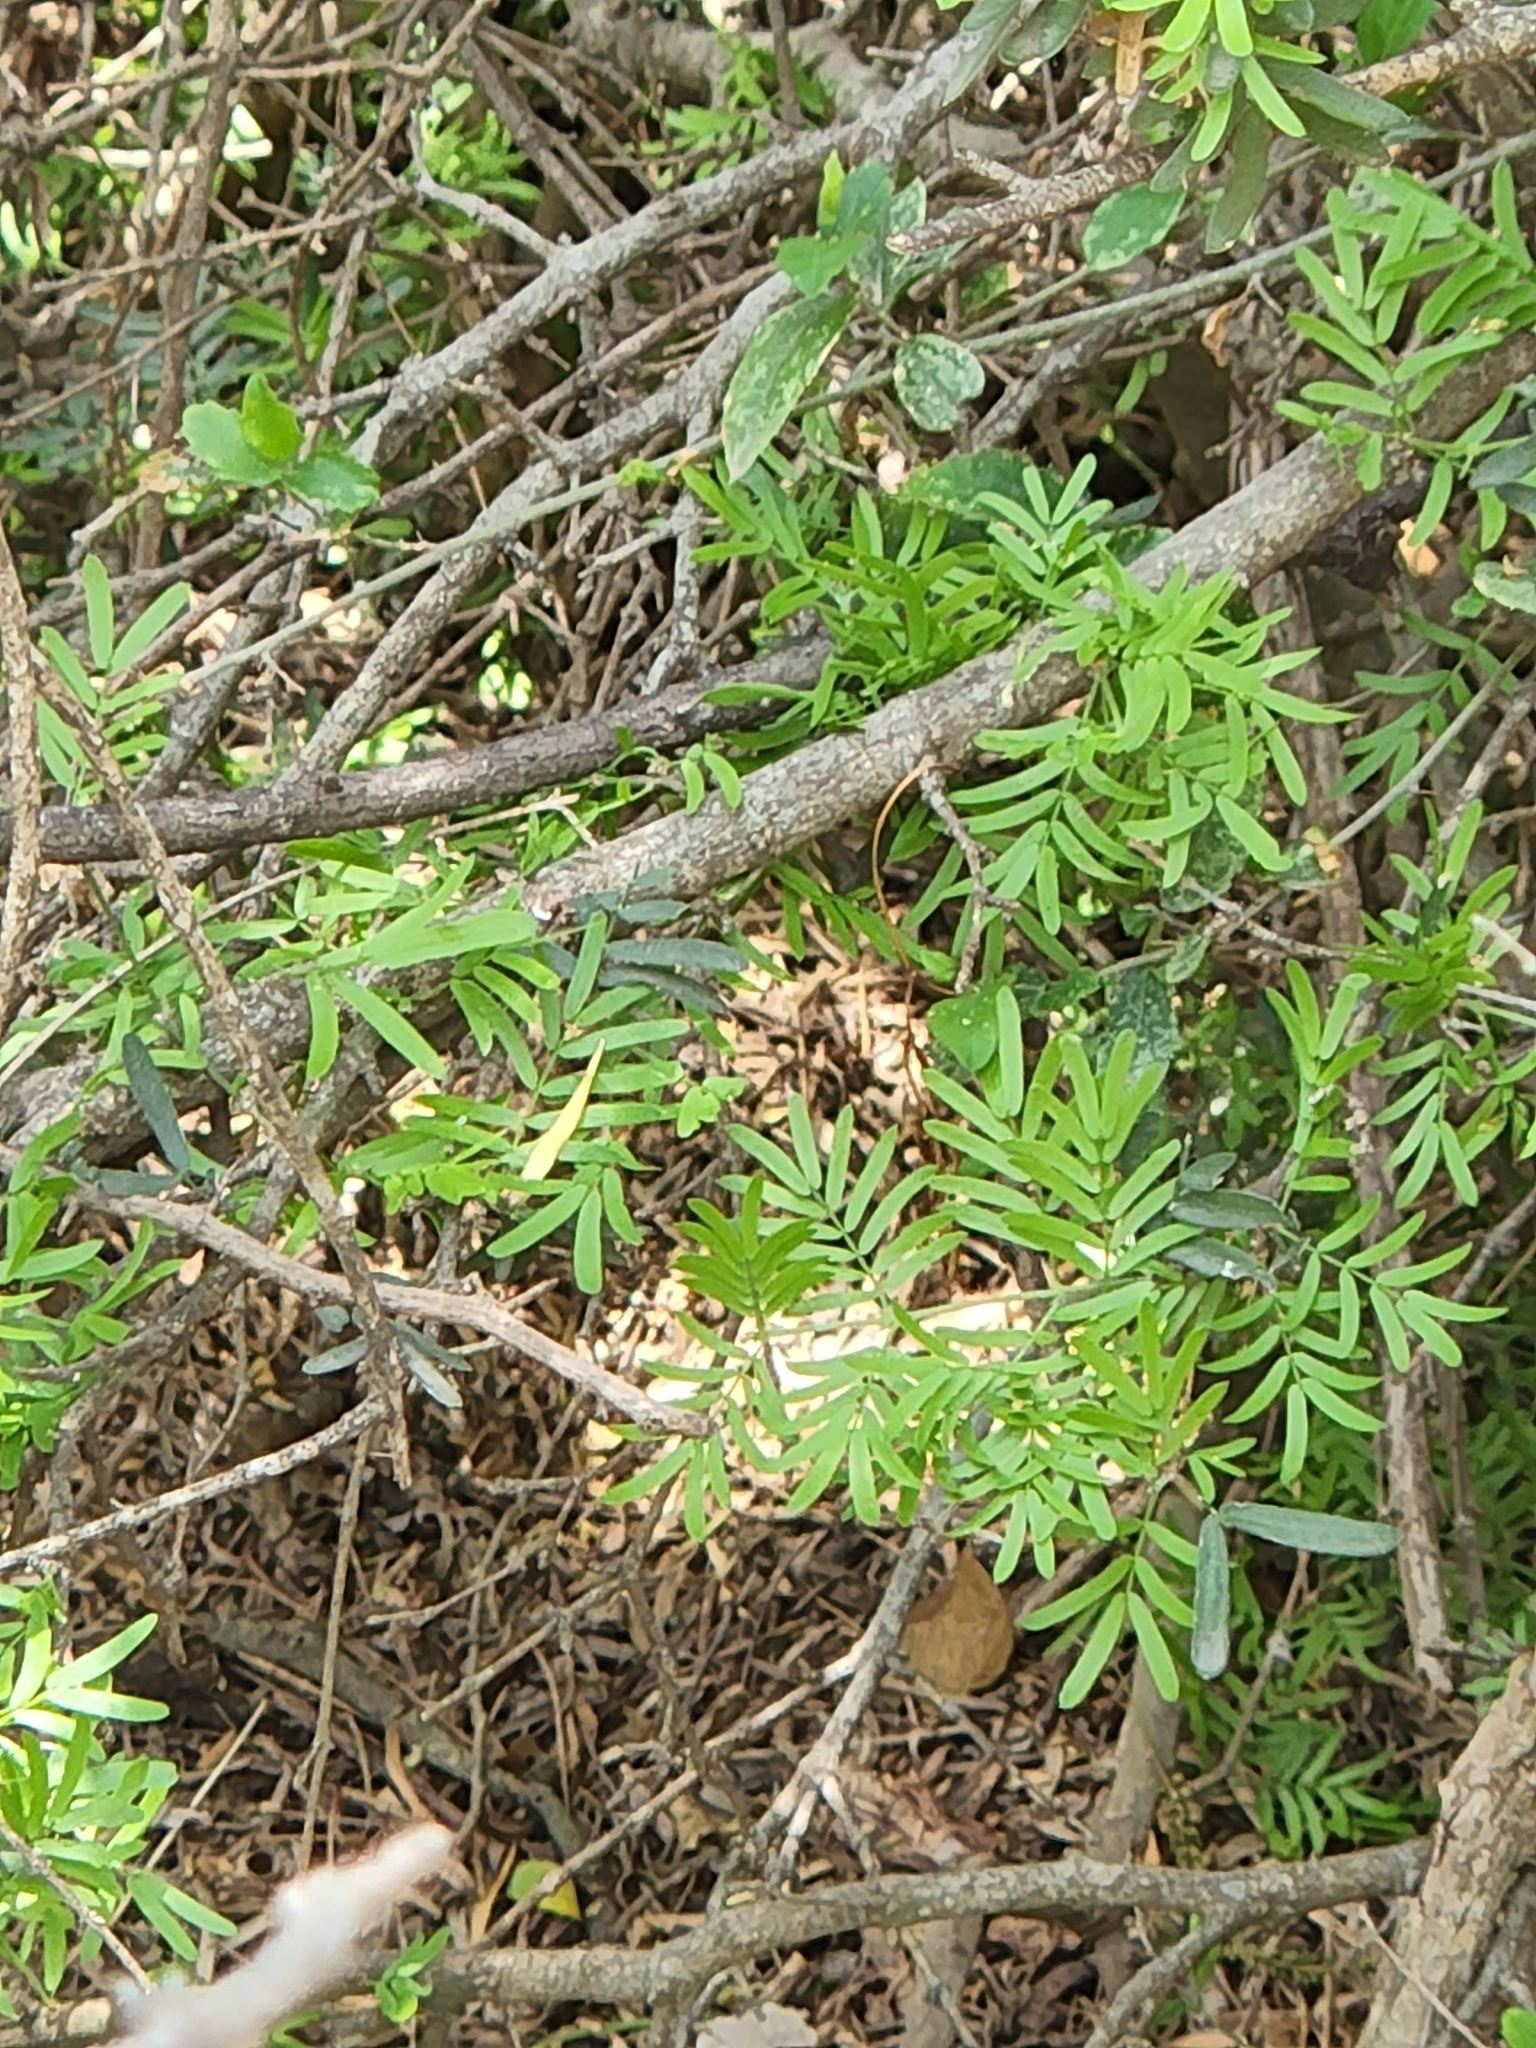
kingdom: Plantae
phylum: Tracheophyta
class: Magnoliopsida
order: Zygophyllales
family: Zygophyllaceae
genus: Porlieria
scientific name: Porlieria angustifolia
